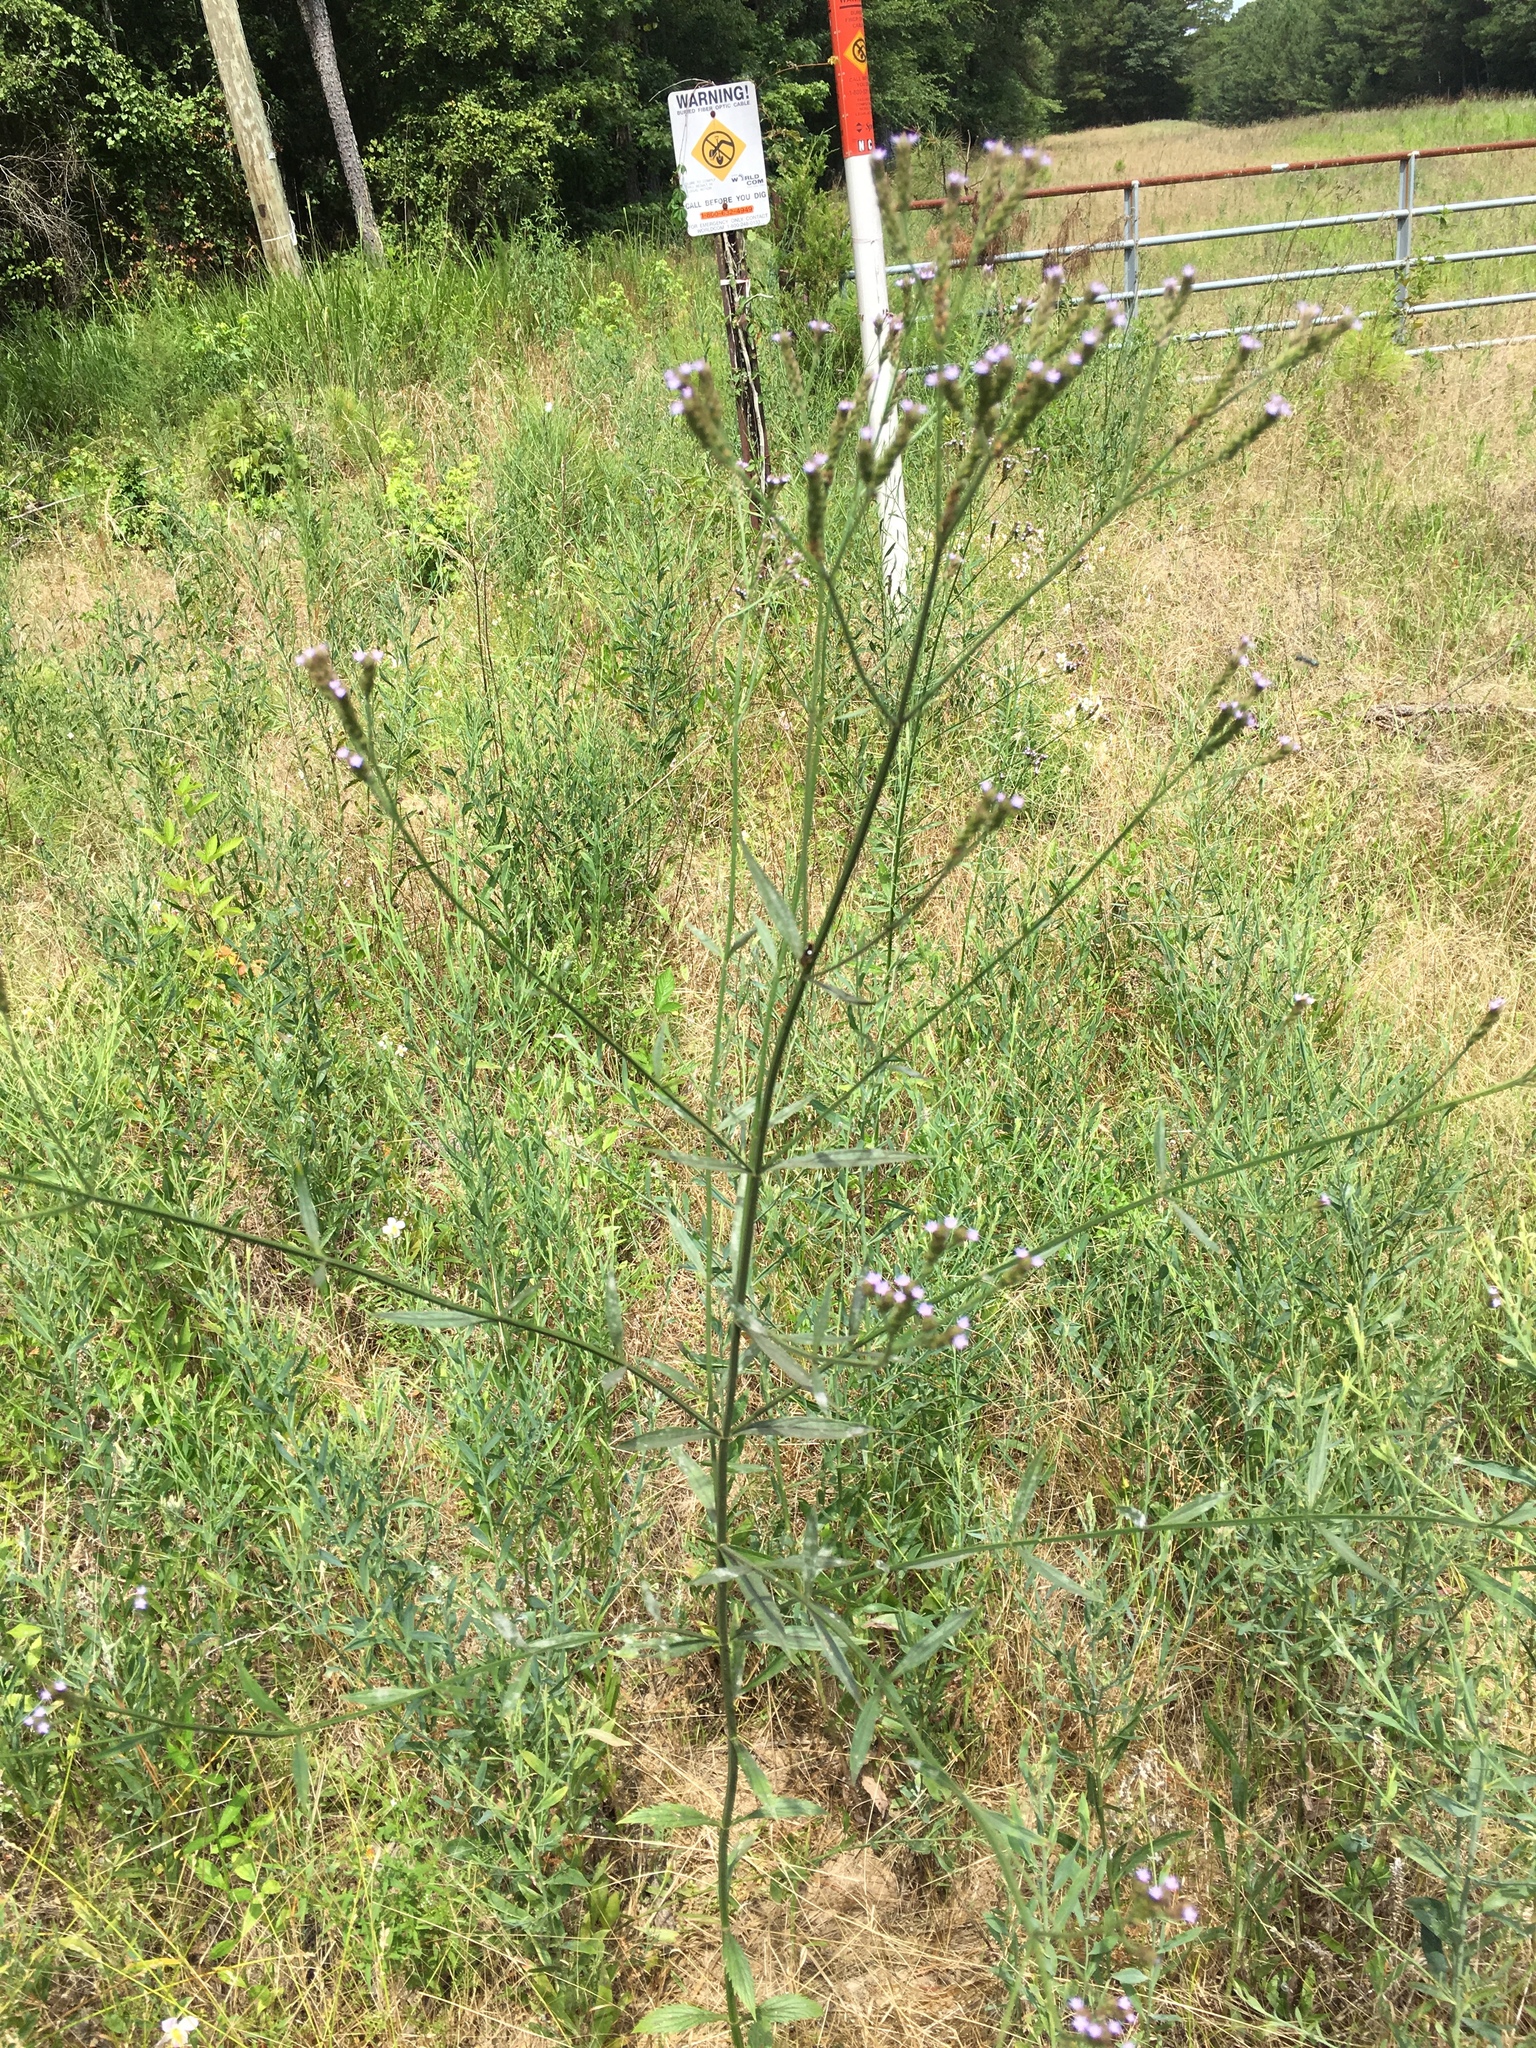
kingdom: Plantae
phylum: Tracheophyta
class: Magnoliopsida
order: Lamiales
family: Verbenaceae
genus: Verbena
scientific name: Verbena brasiliensis
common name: Brazilian vervain
